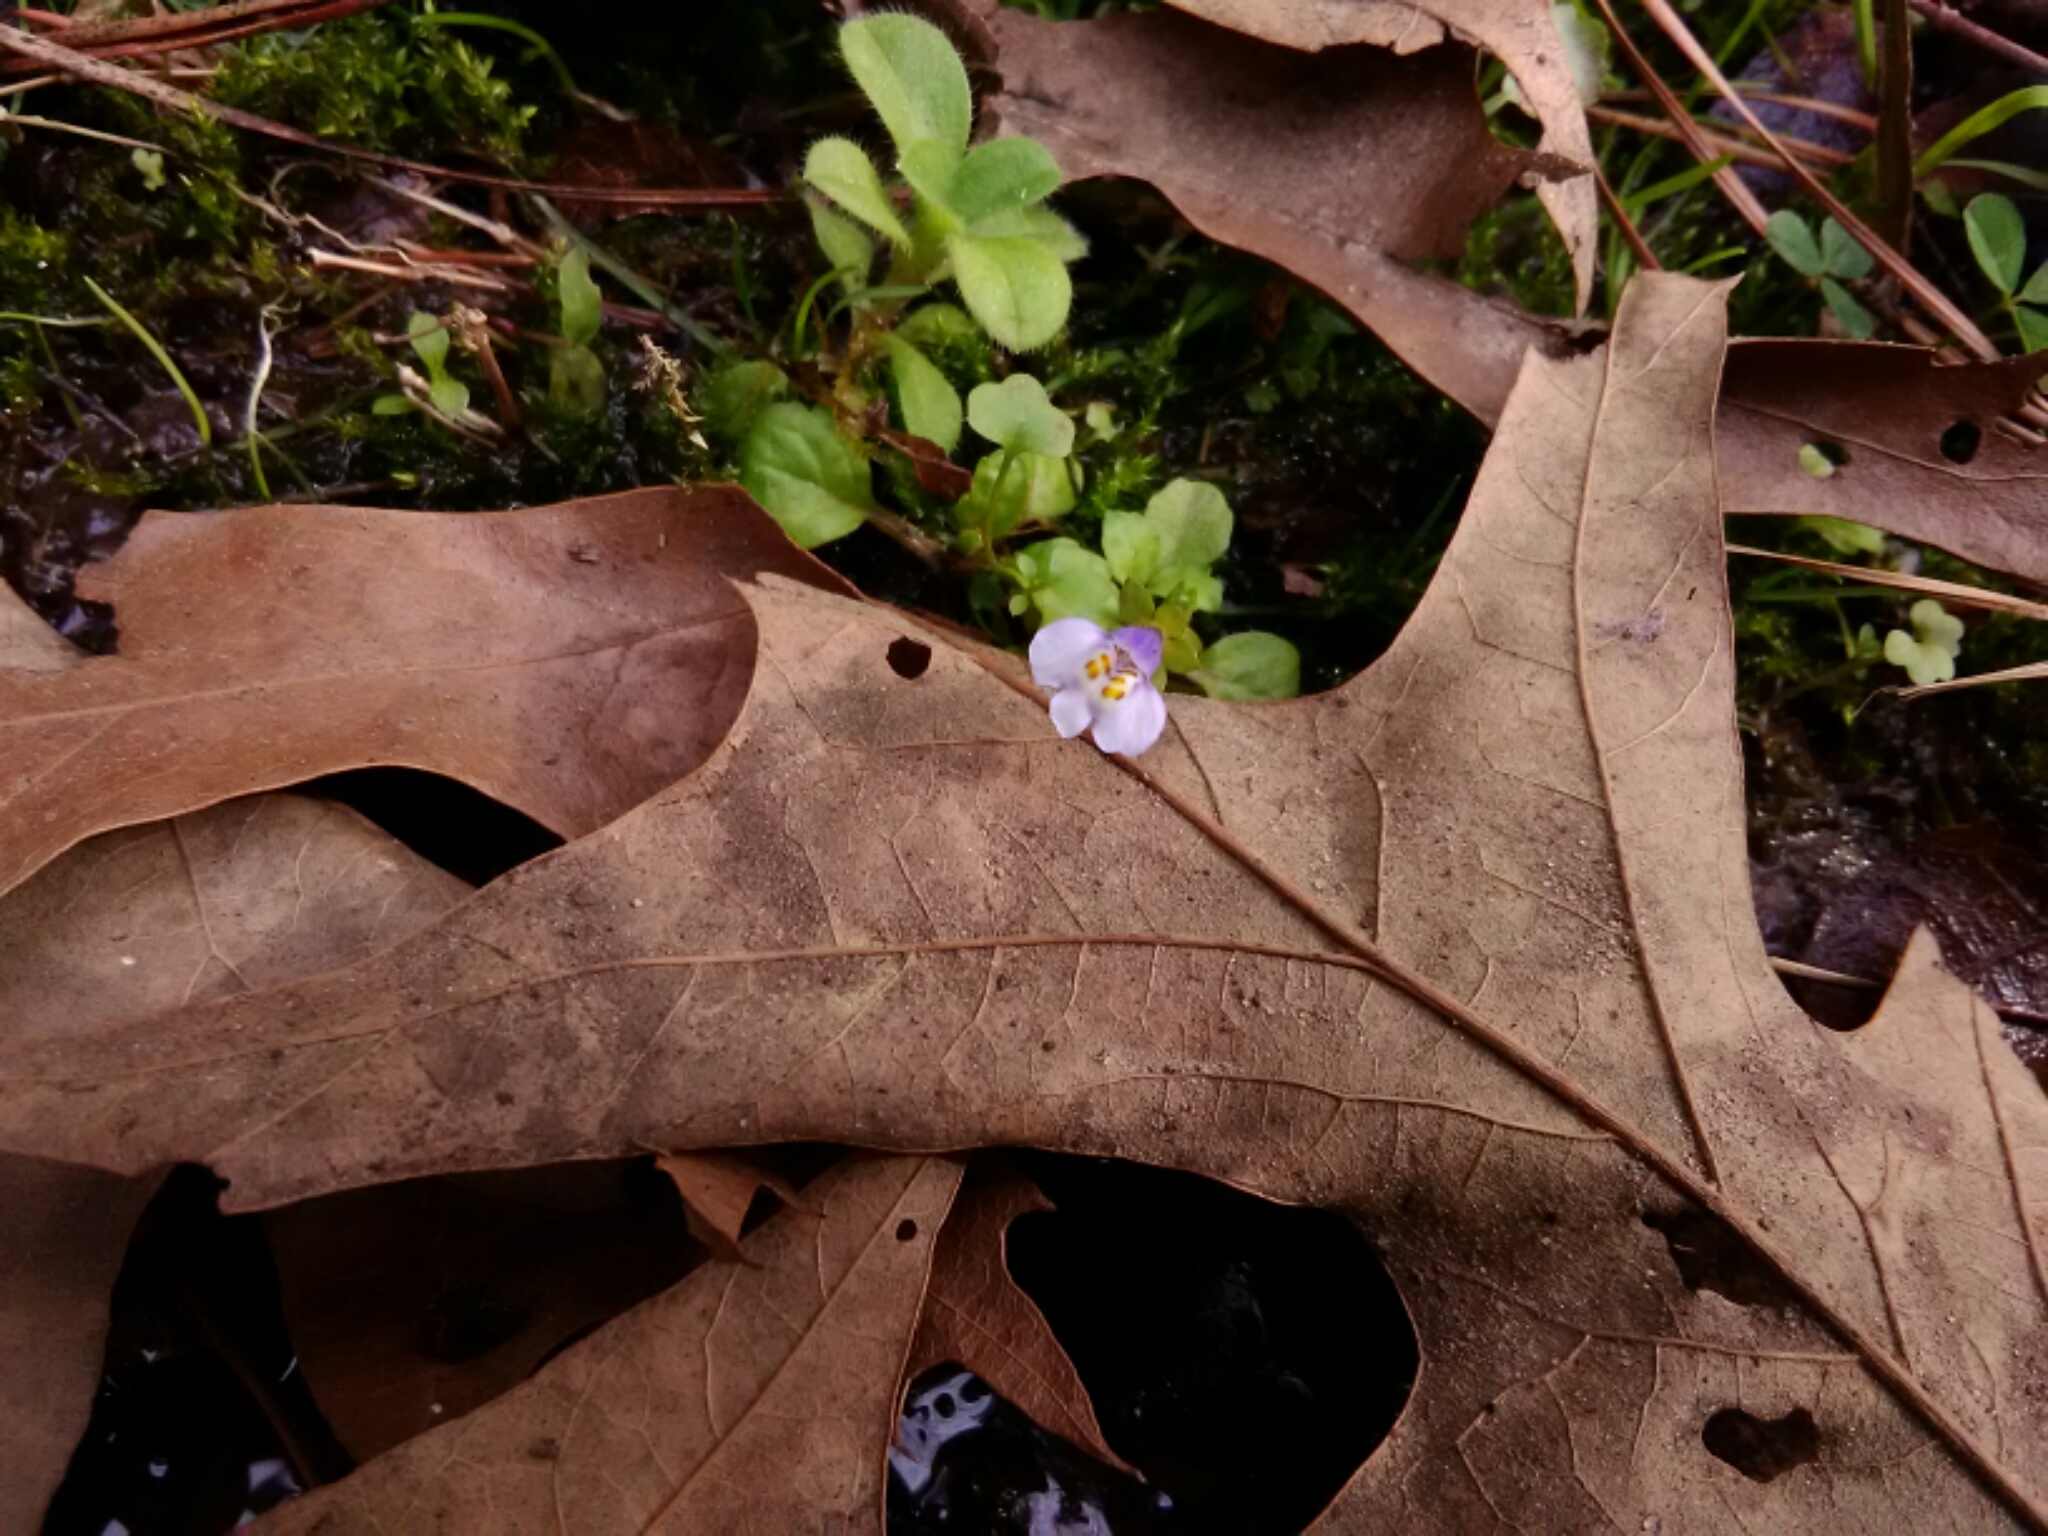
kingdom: Plantae
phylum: Tracheophyta
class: Magnoliopsida
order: Lamiales
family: Mazaceae
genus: Mazus
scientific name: Mazus pumilus
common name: Japanese mazus
